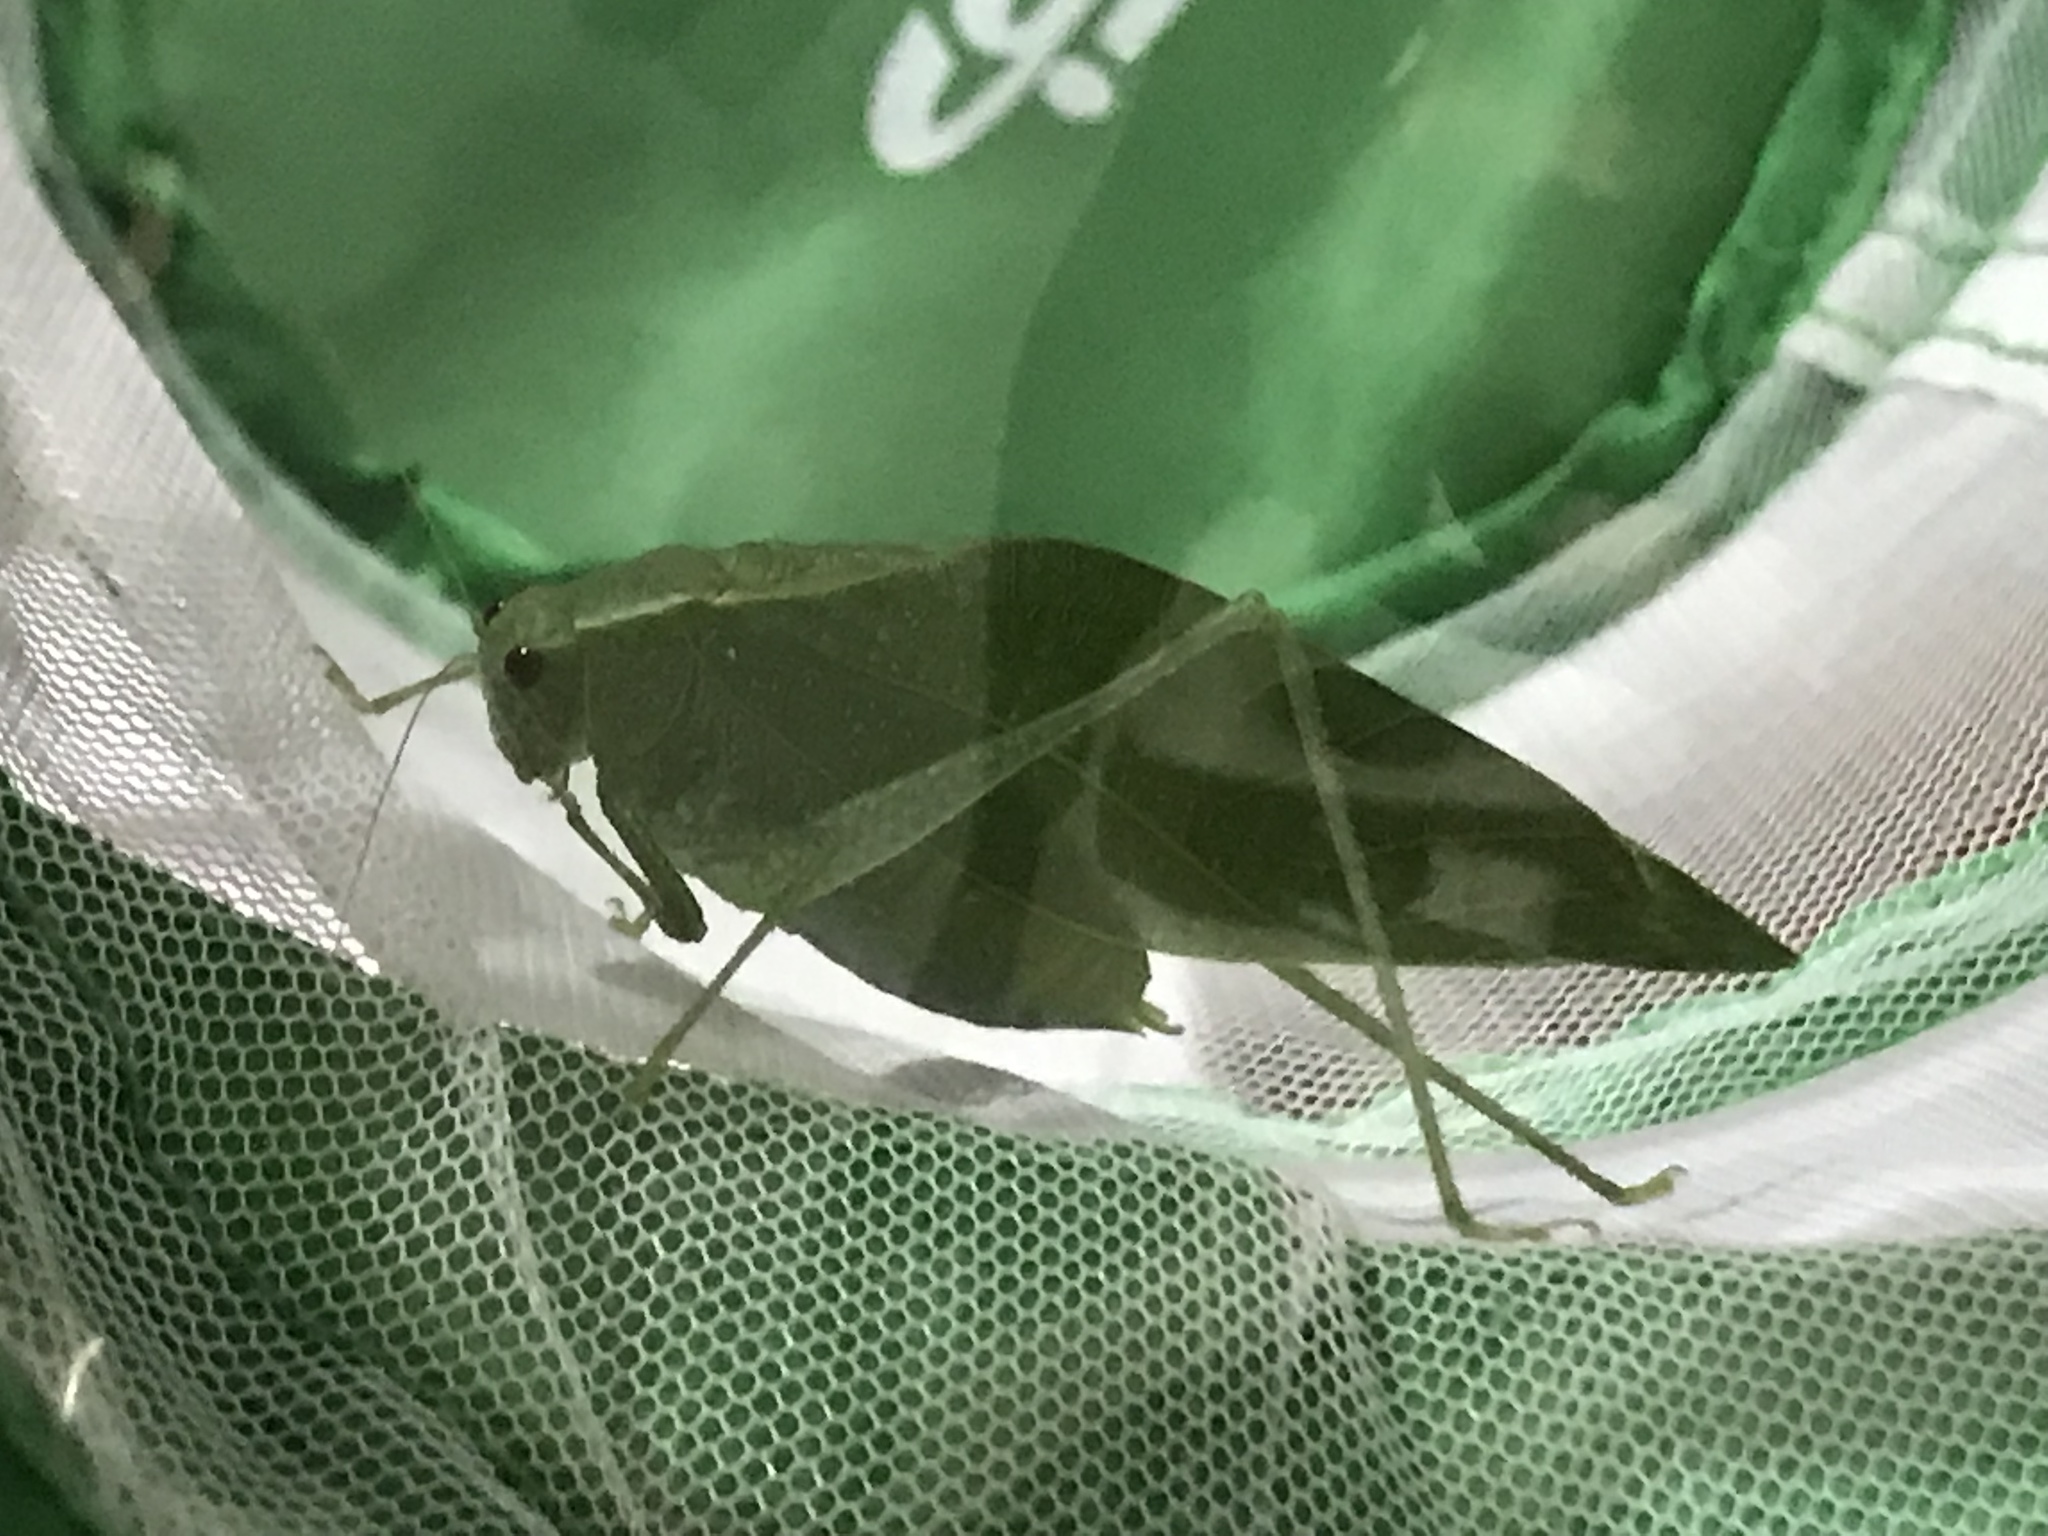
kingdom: Animalia
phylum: Arthropoda
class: Insecta
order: Orthoptera
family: Tettigoniidae
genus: Microcentrum
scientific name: Microcentrum rhombifolium
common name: Broad-winged katydid
